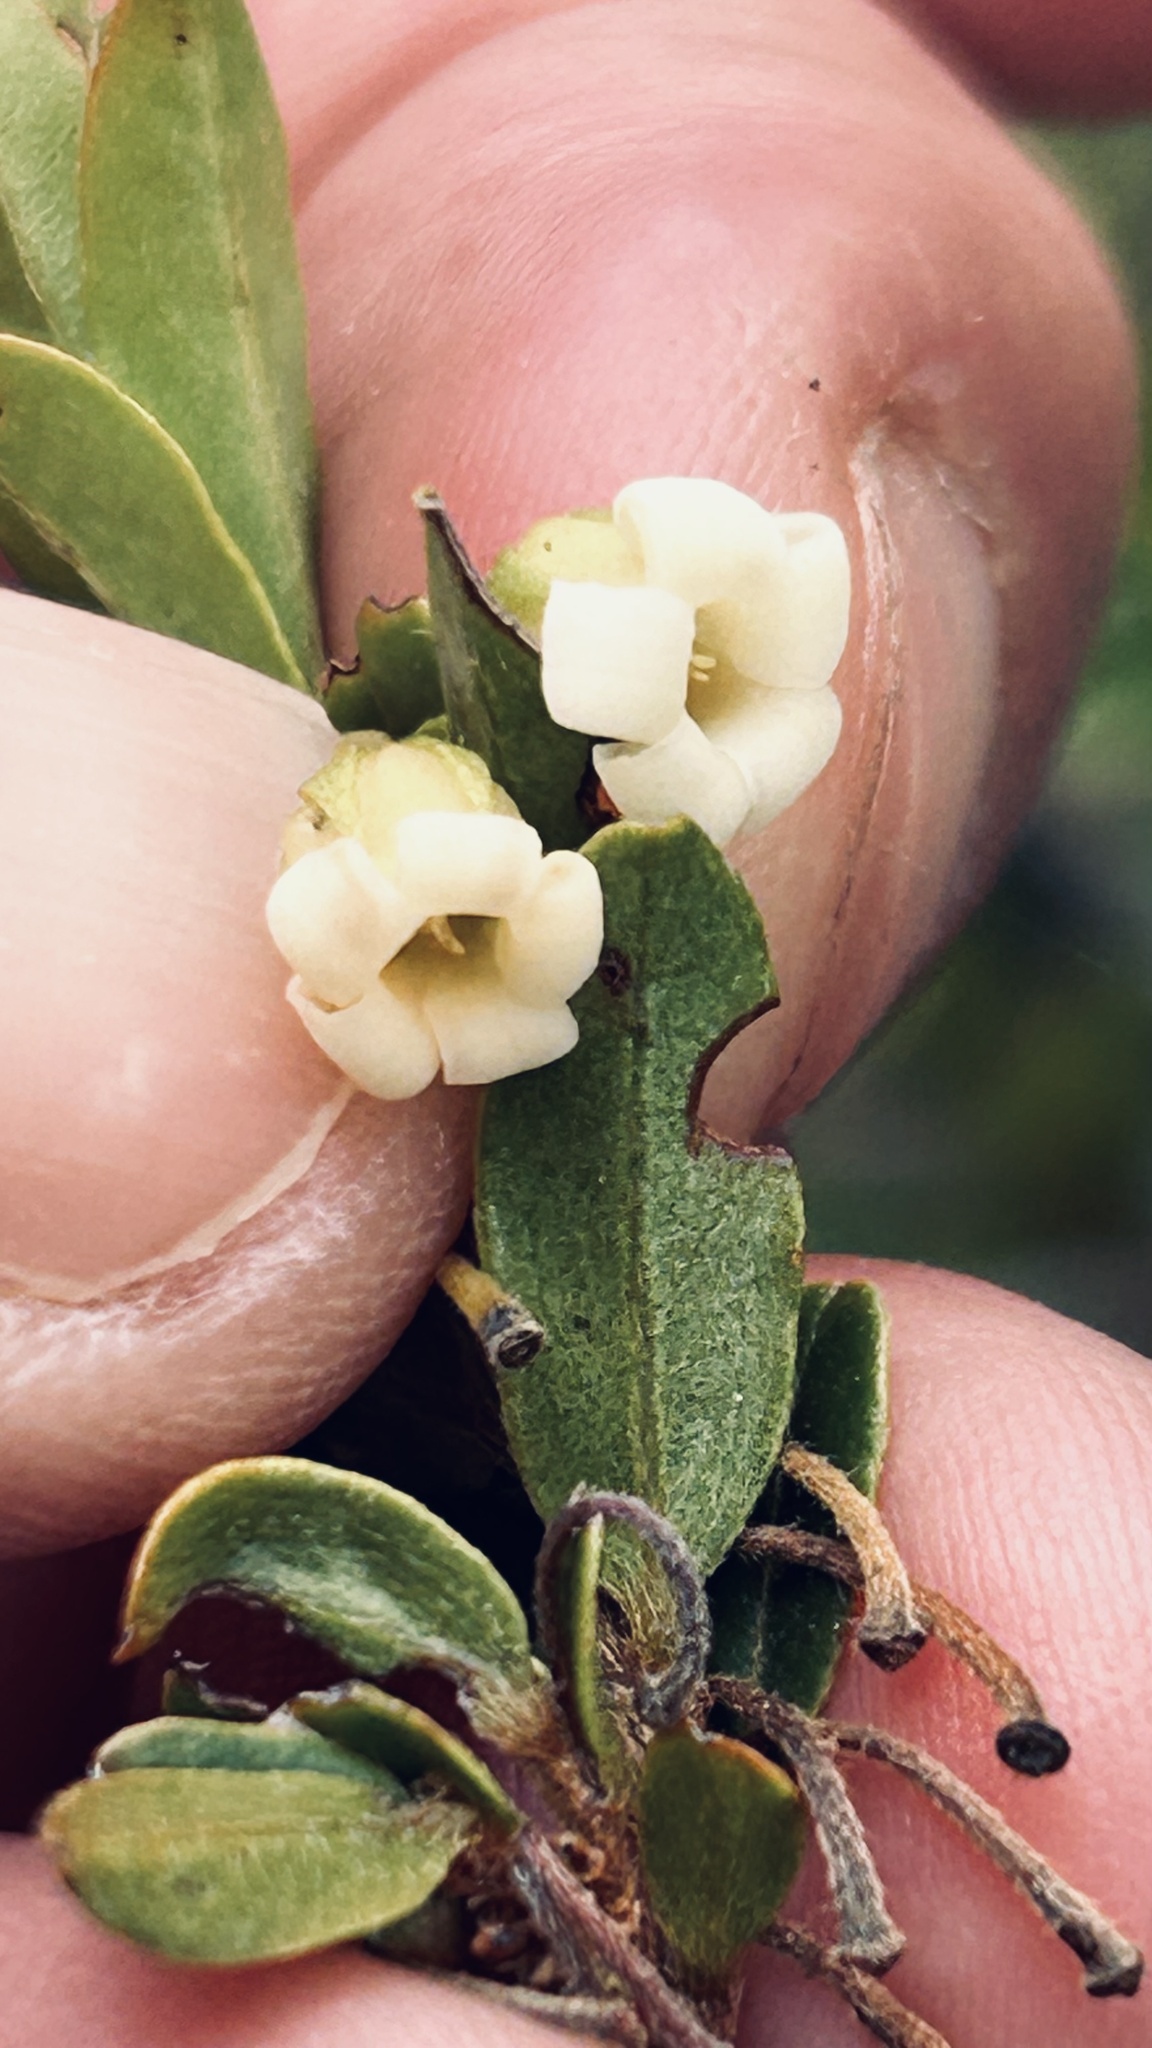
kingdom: Plantae
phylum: Tracheophyta
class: Magnoliopsida
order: Ericales
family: Ebenaceae
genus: Diospyros
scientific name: Diospyros glabra
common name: Fynbos star apple
